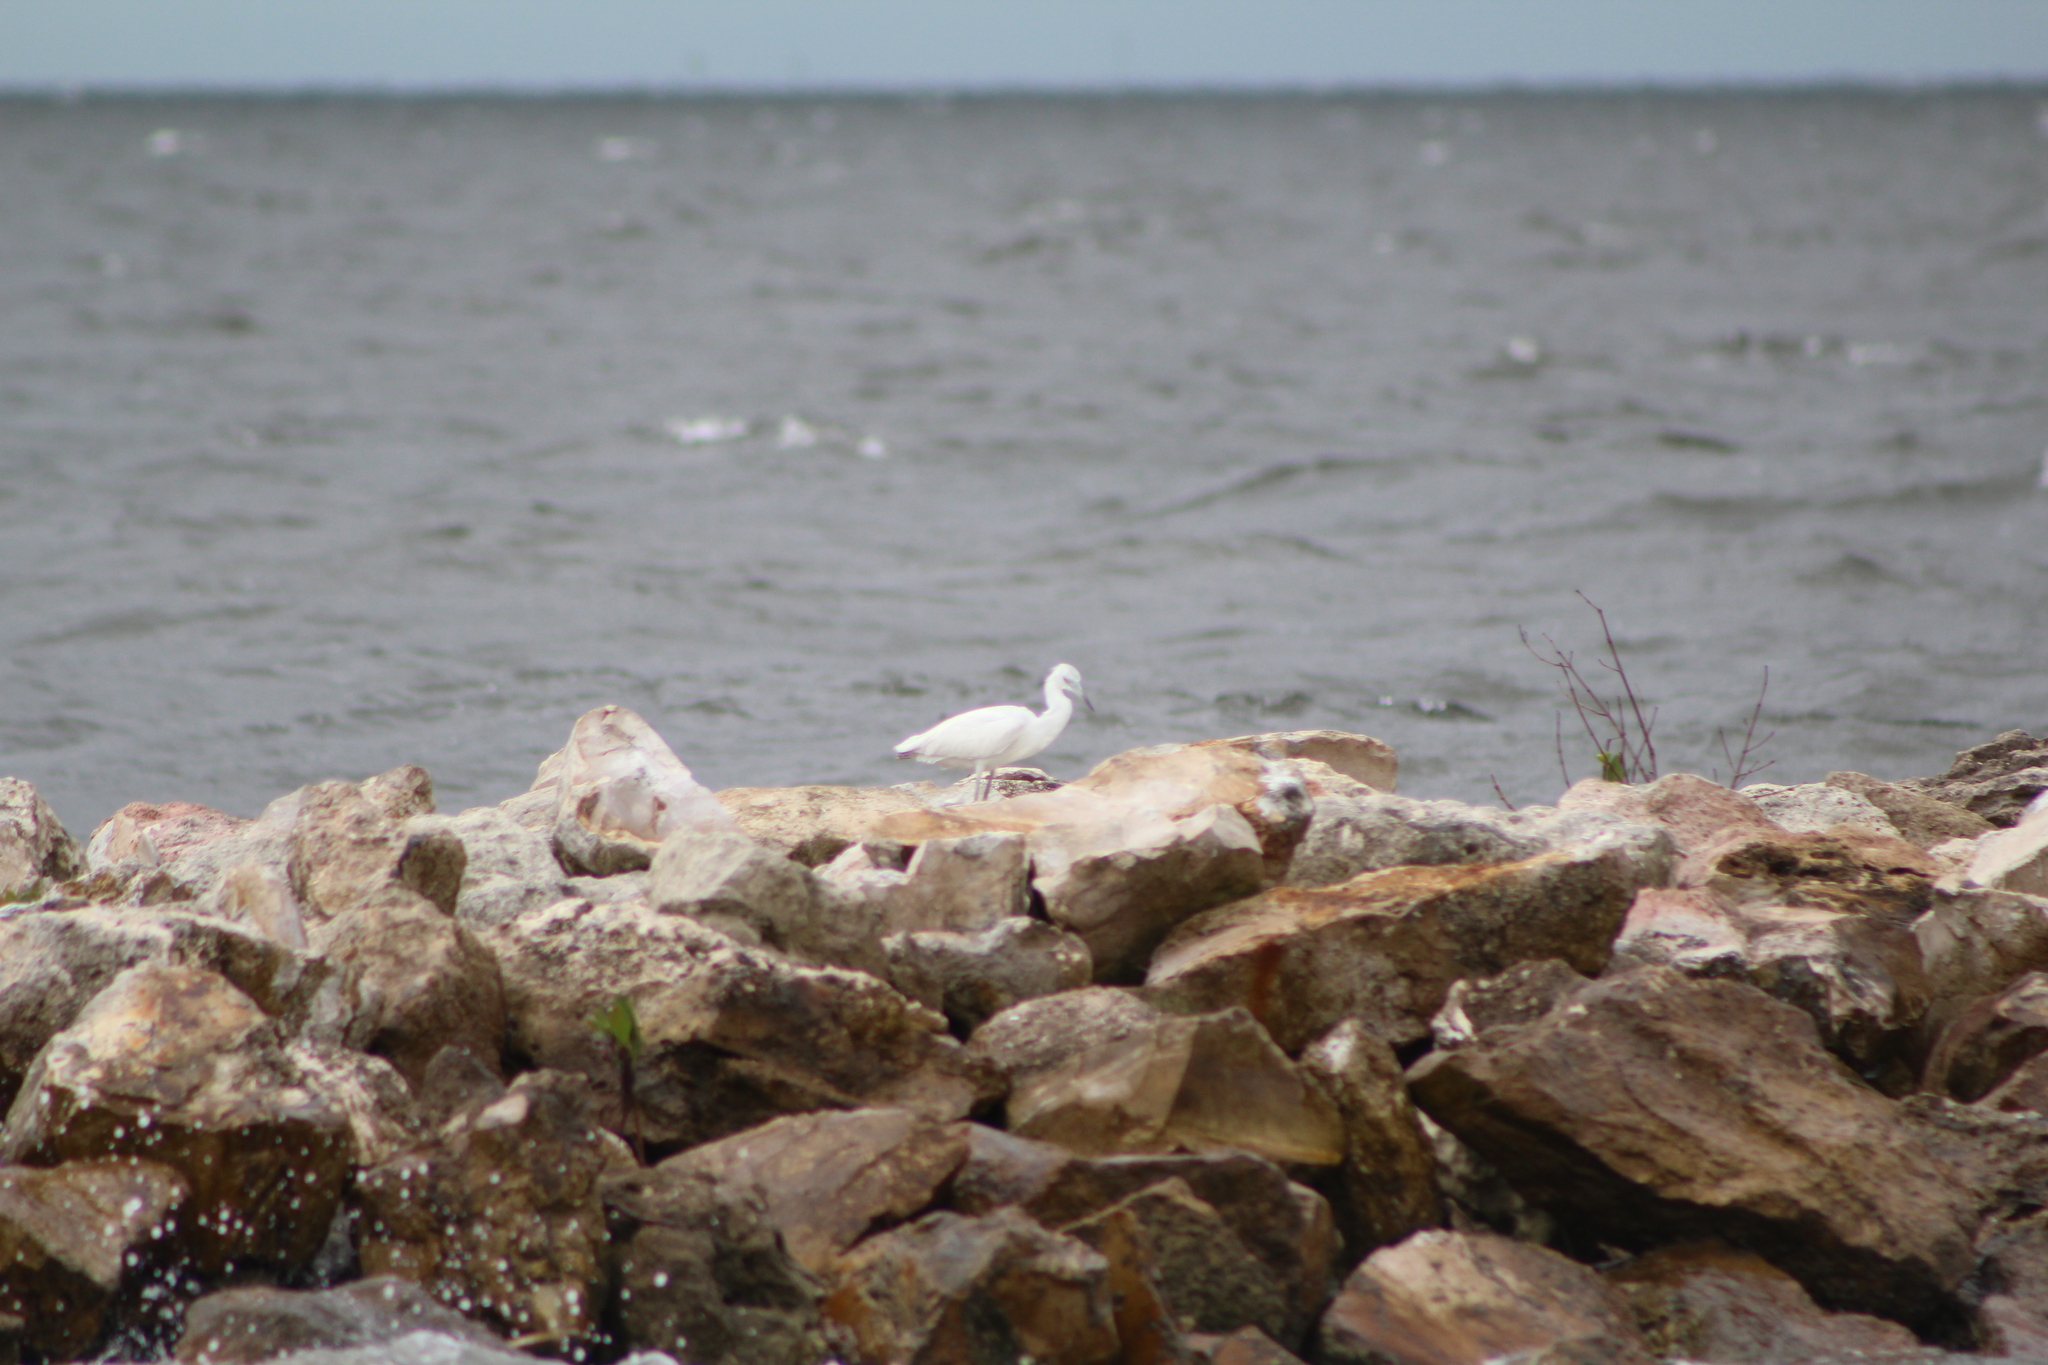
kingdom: Animalia
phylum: Chordata
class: Aves
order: Pelecaniformes
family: Ardeidae
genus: Egretta
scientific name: Egretta caerulea
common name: Little blue heron
